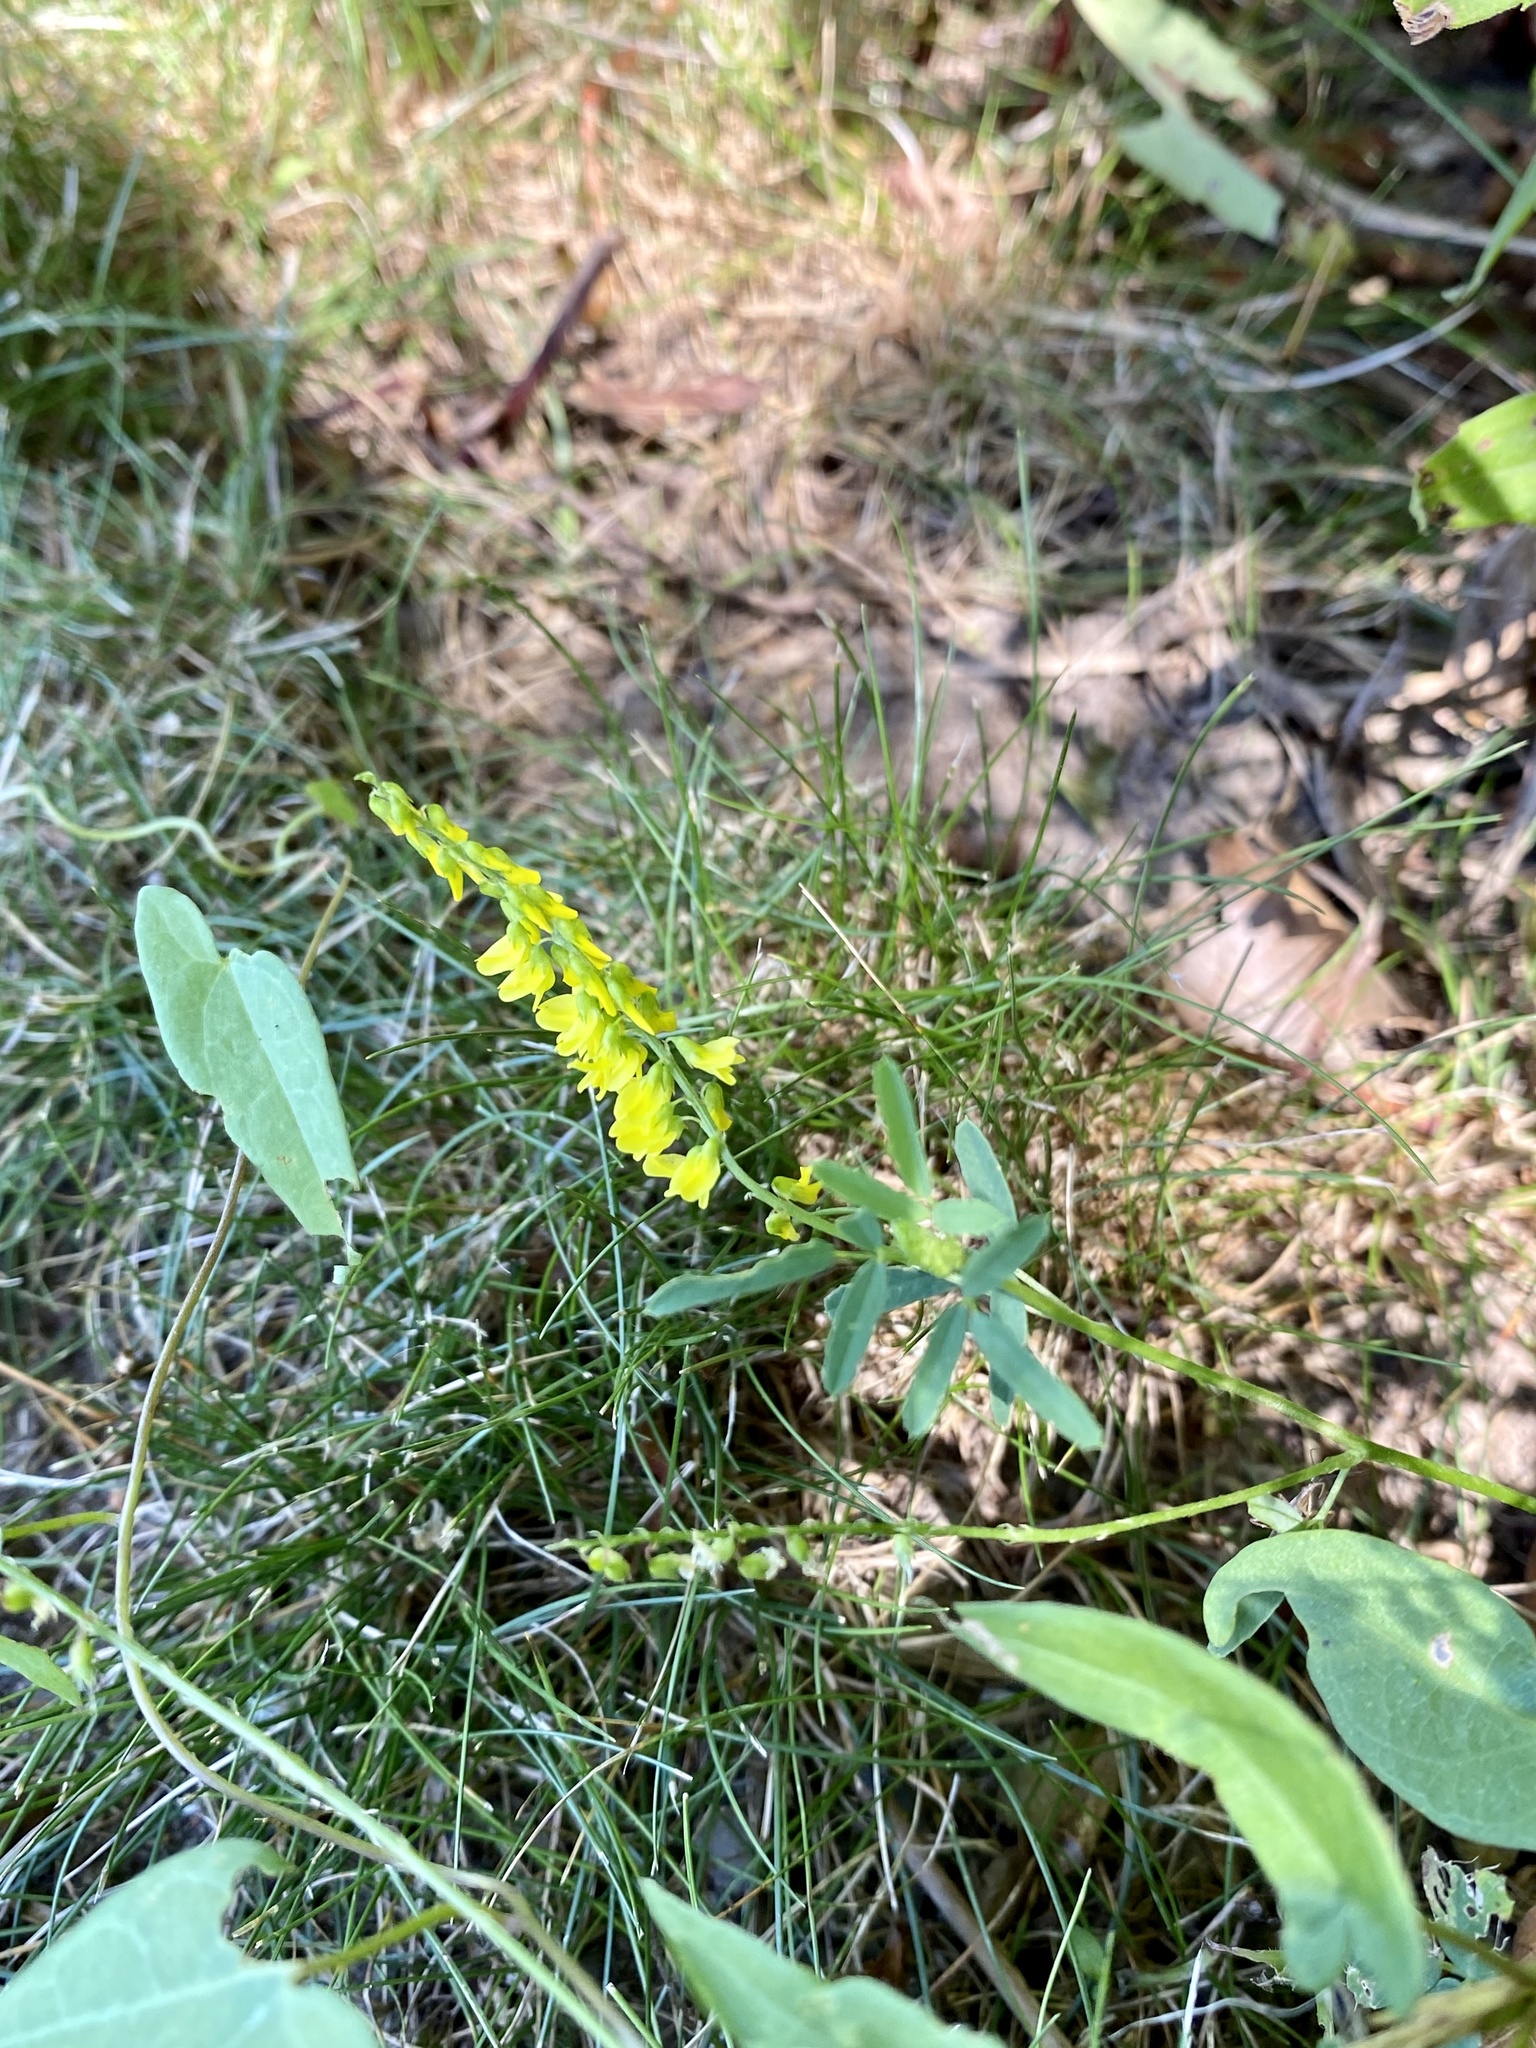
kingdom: Plantae
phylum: Tracheophyta
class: Magnoliopsida
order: Fabales
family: Fabaceae
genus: Melilotus
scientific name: Melilotus officinalis
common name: Sweetclover
